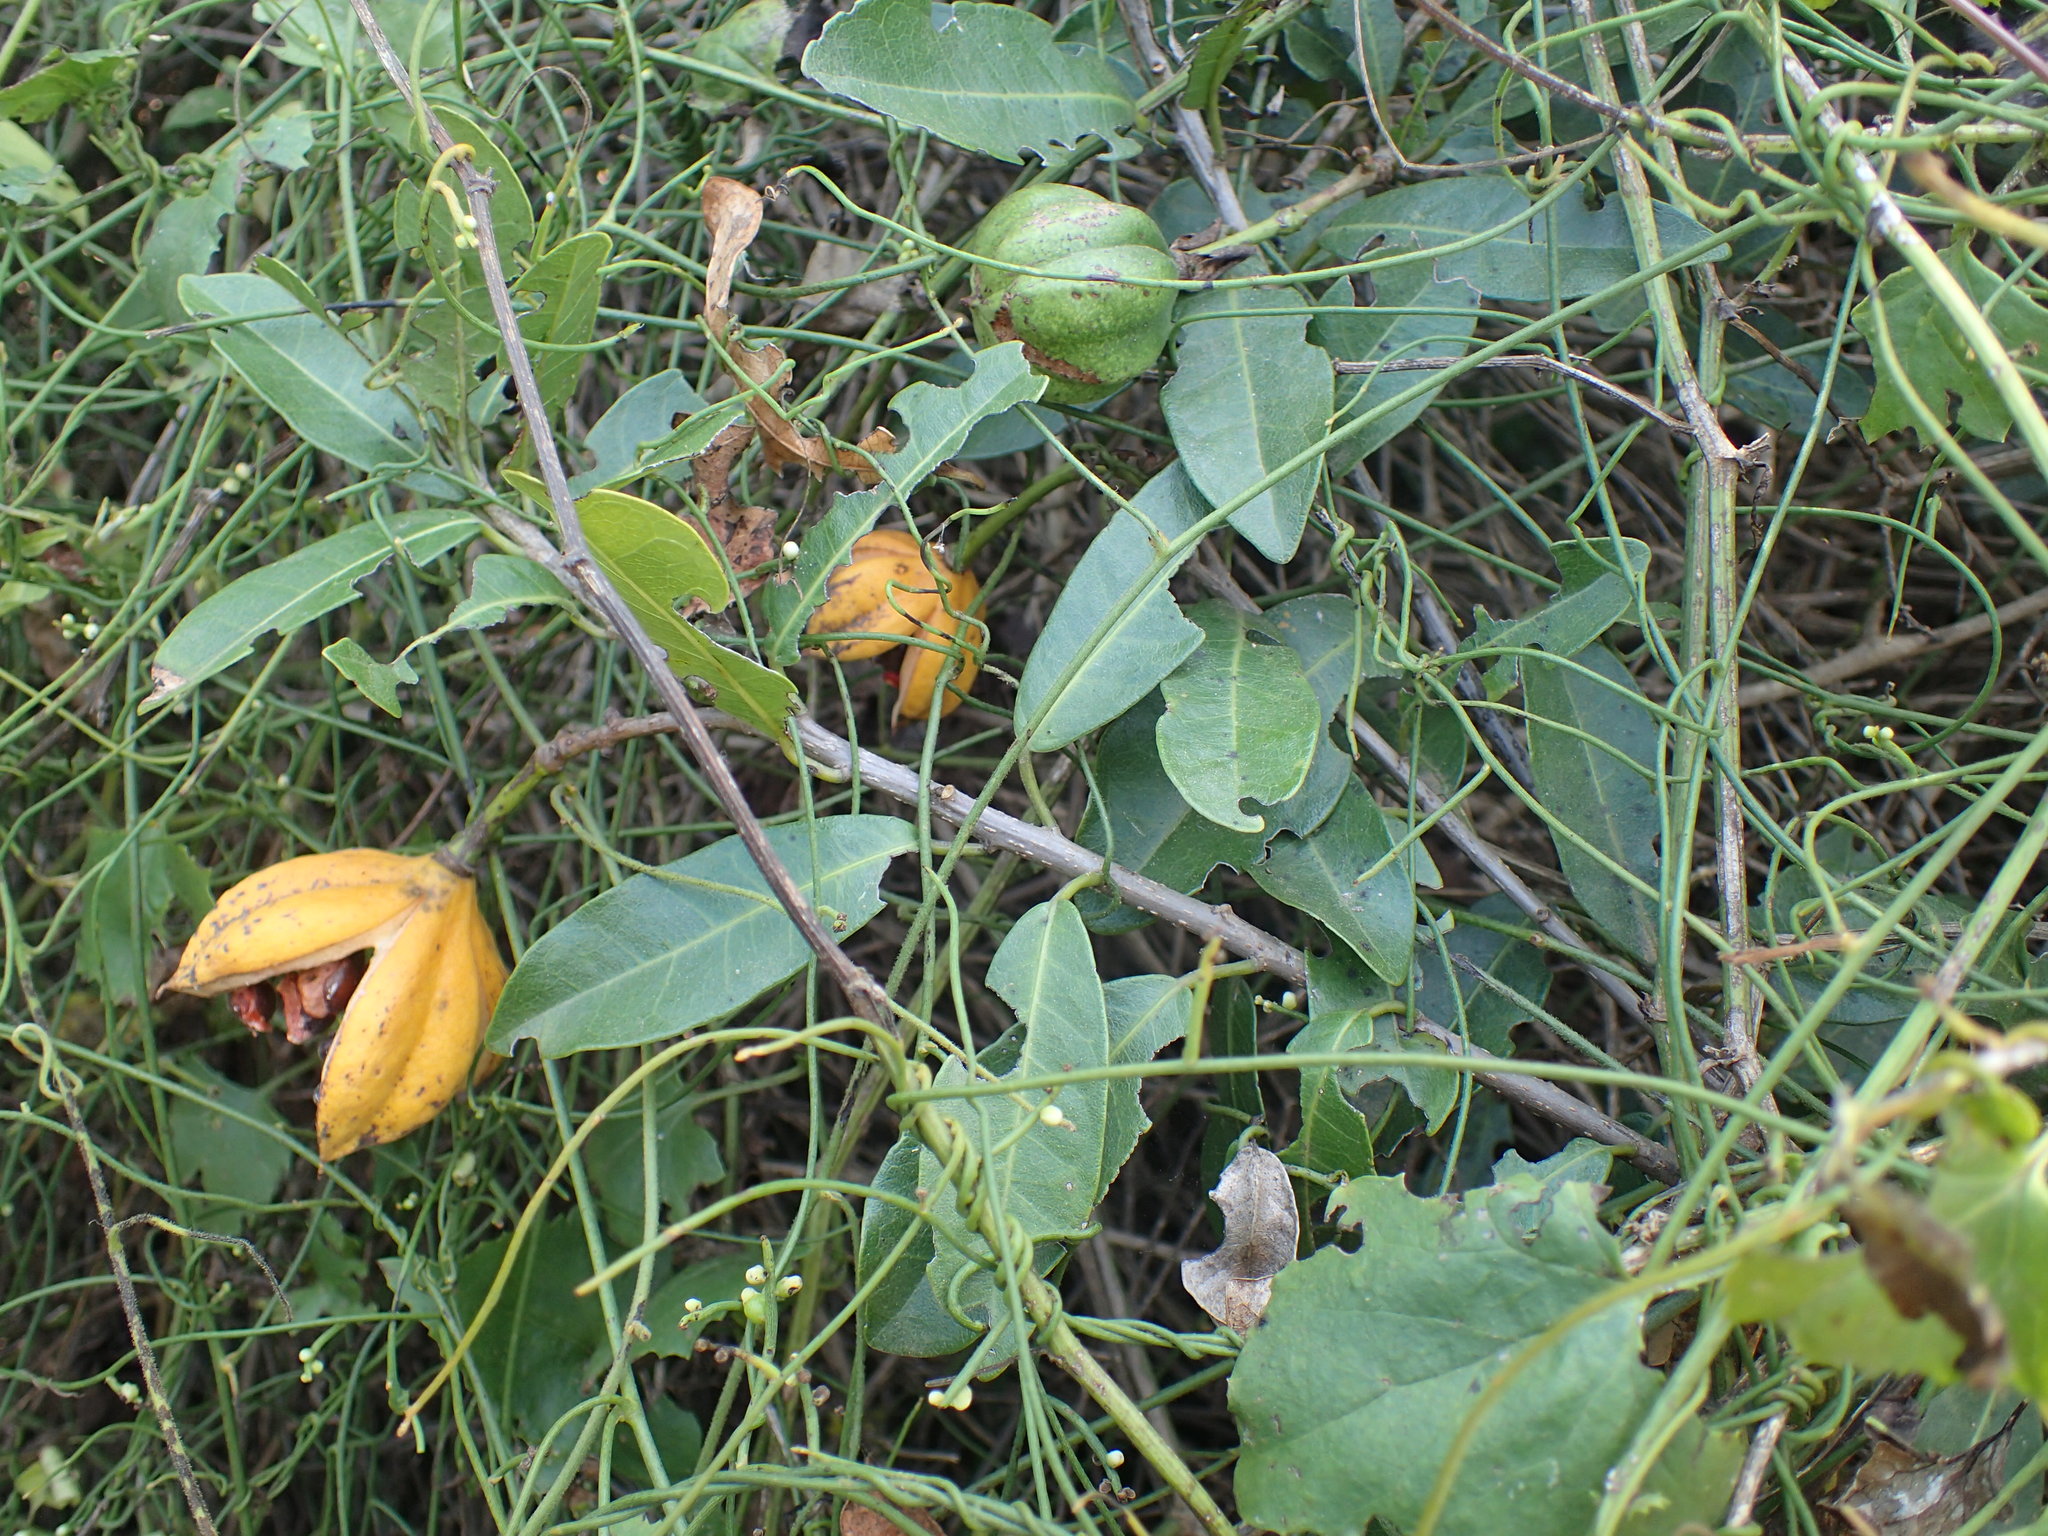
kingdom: Plantae
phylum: Tracheophyta
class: Magnoliopsida
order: Malpighiales
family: Achariaceae
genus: Xylotheca
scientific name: Xylotheca kraussiana
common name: African dog rose
